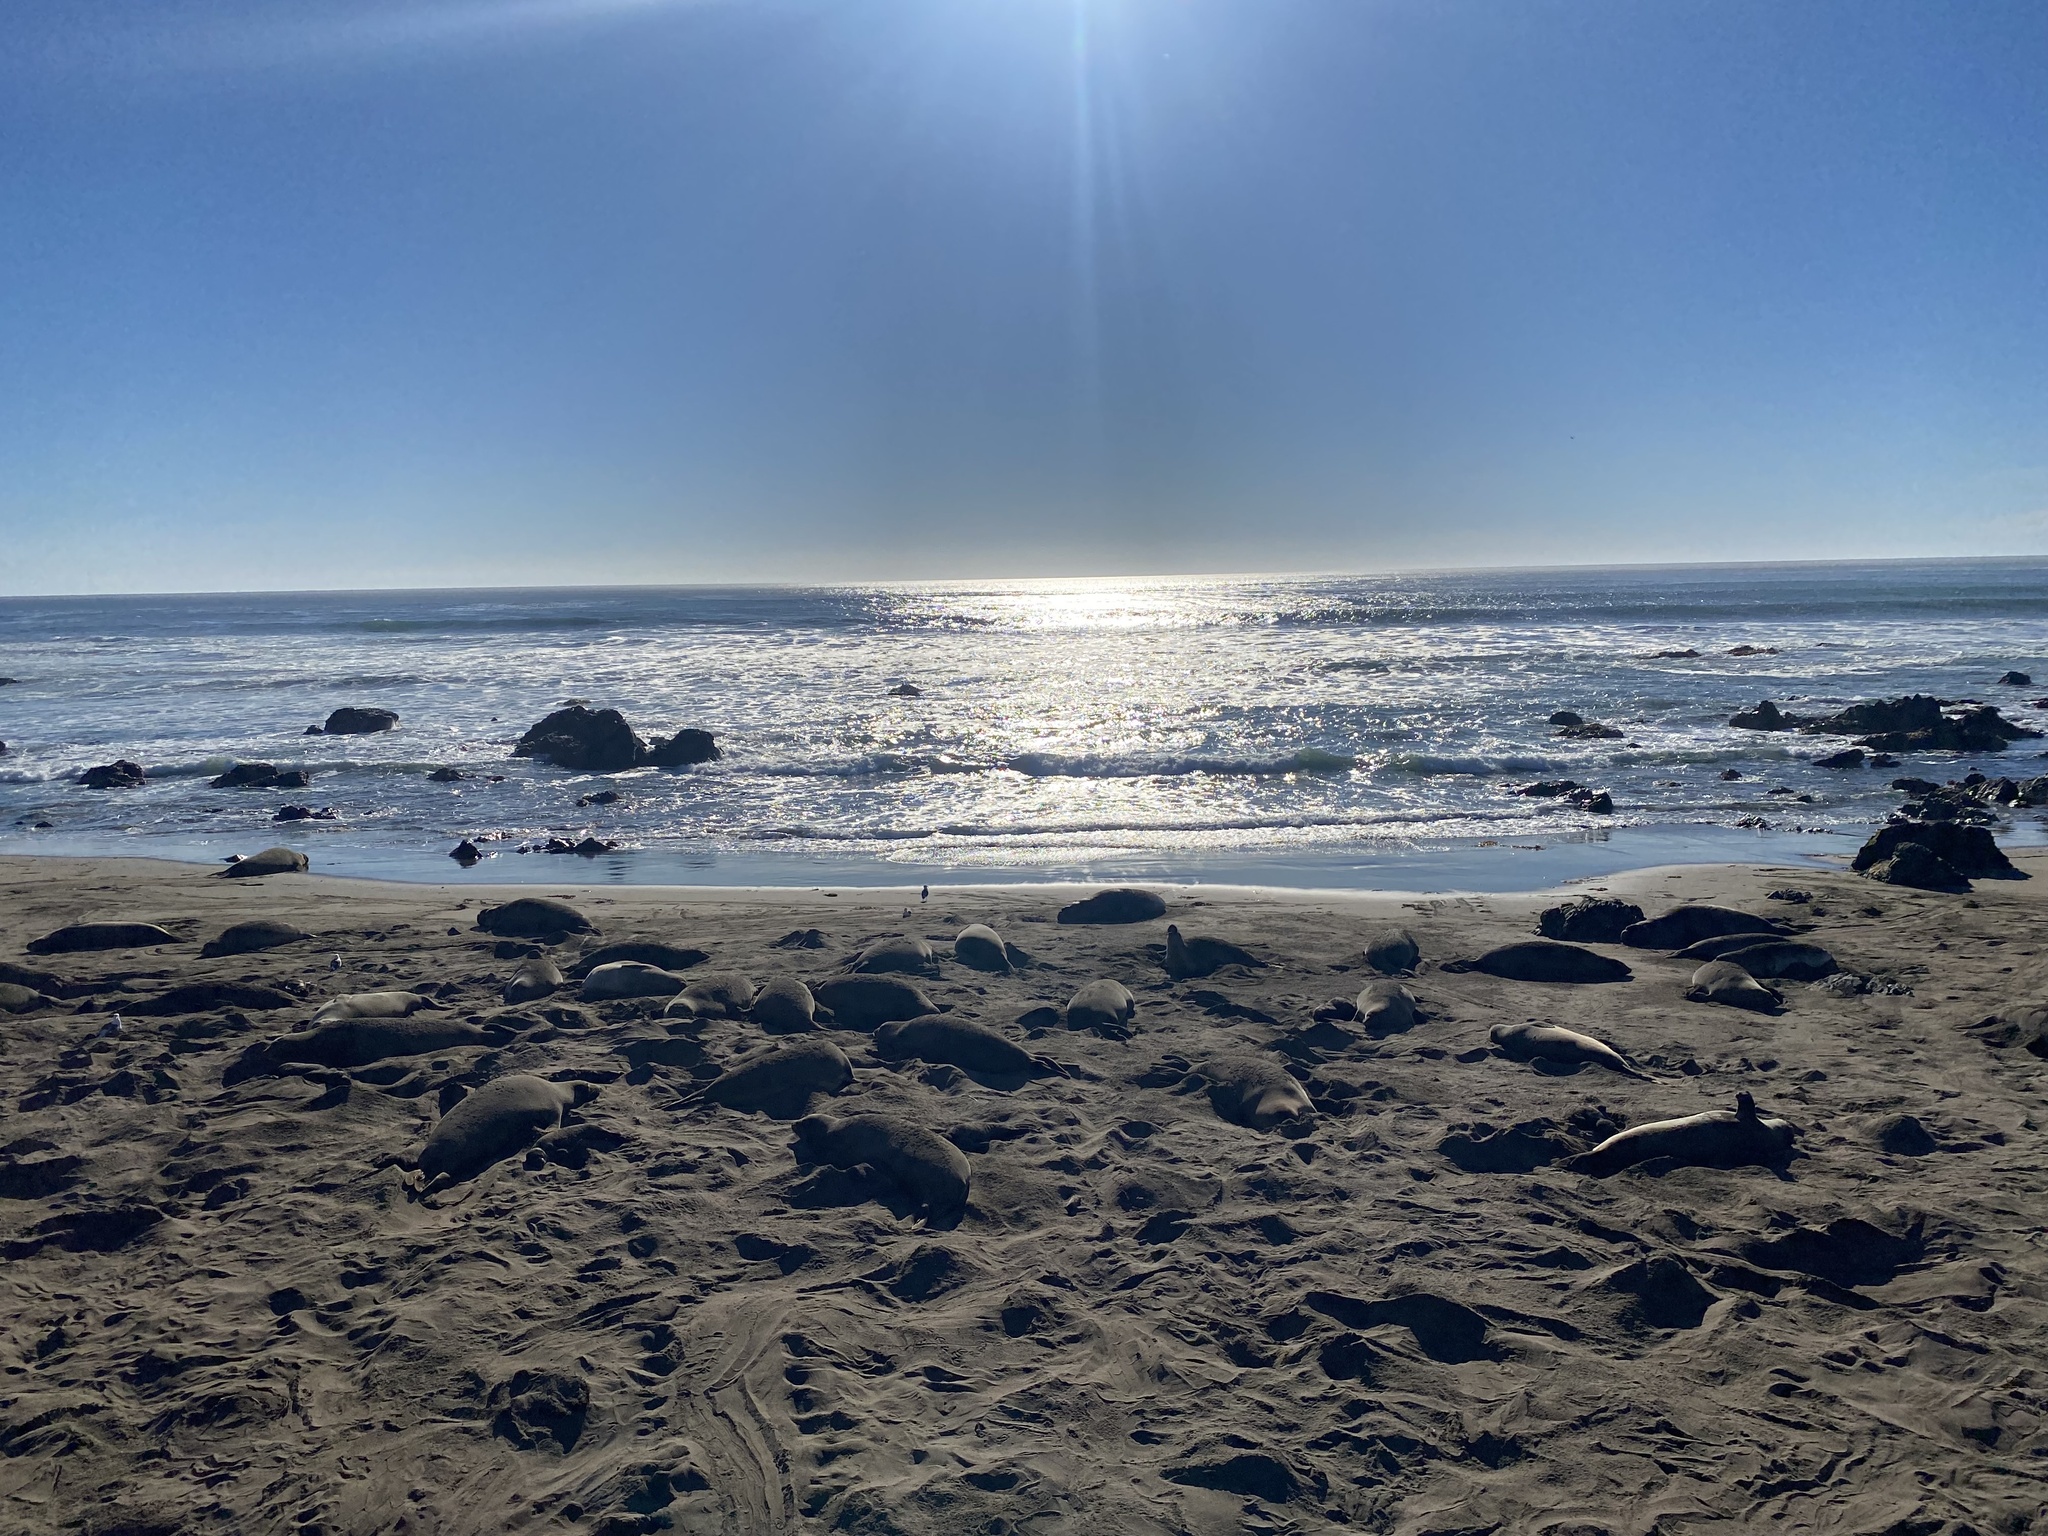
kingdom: Animalia
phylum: Chordata
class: Mammalia
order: Carnivora
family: Phocidae
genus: Mirounga
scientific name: Mirounga angustirostris
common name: Northern elephant seal
